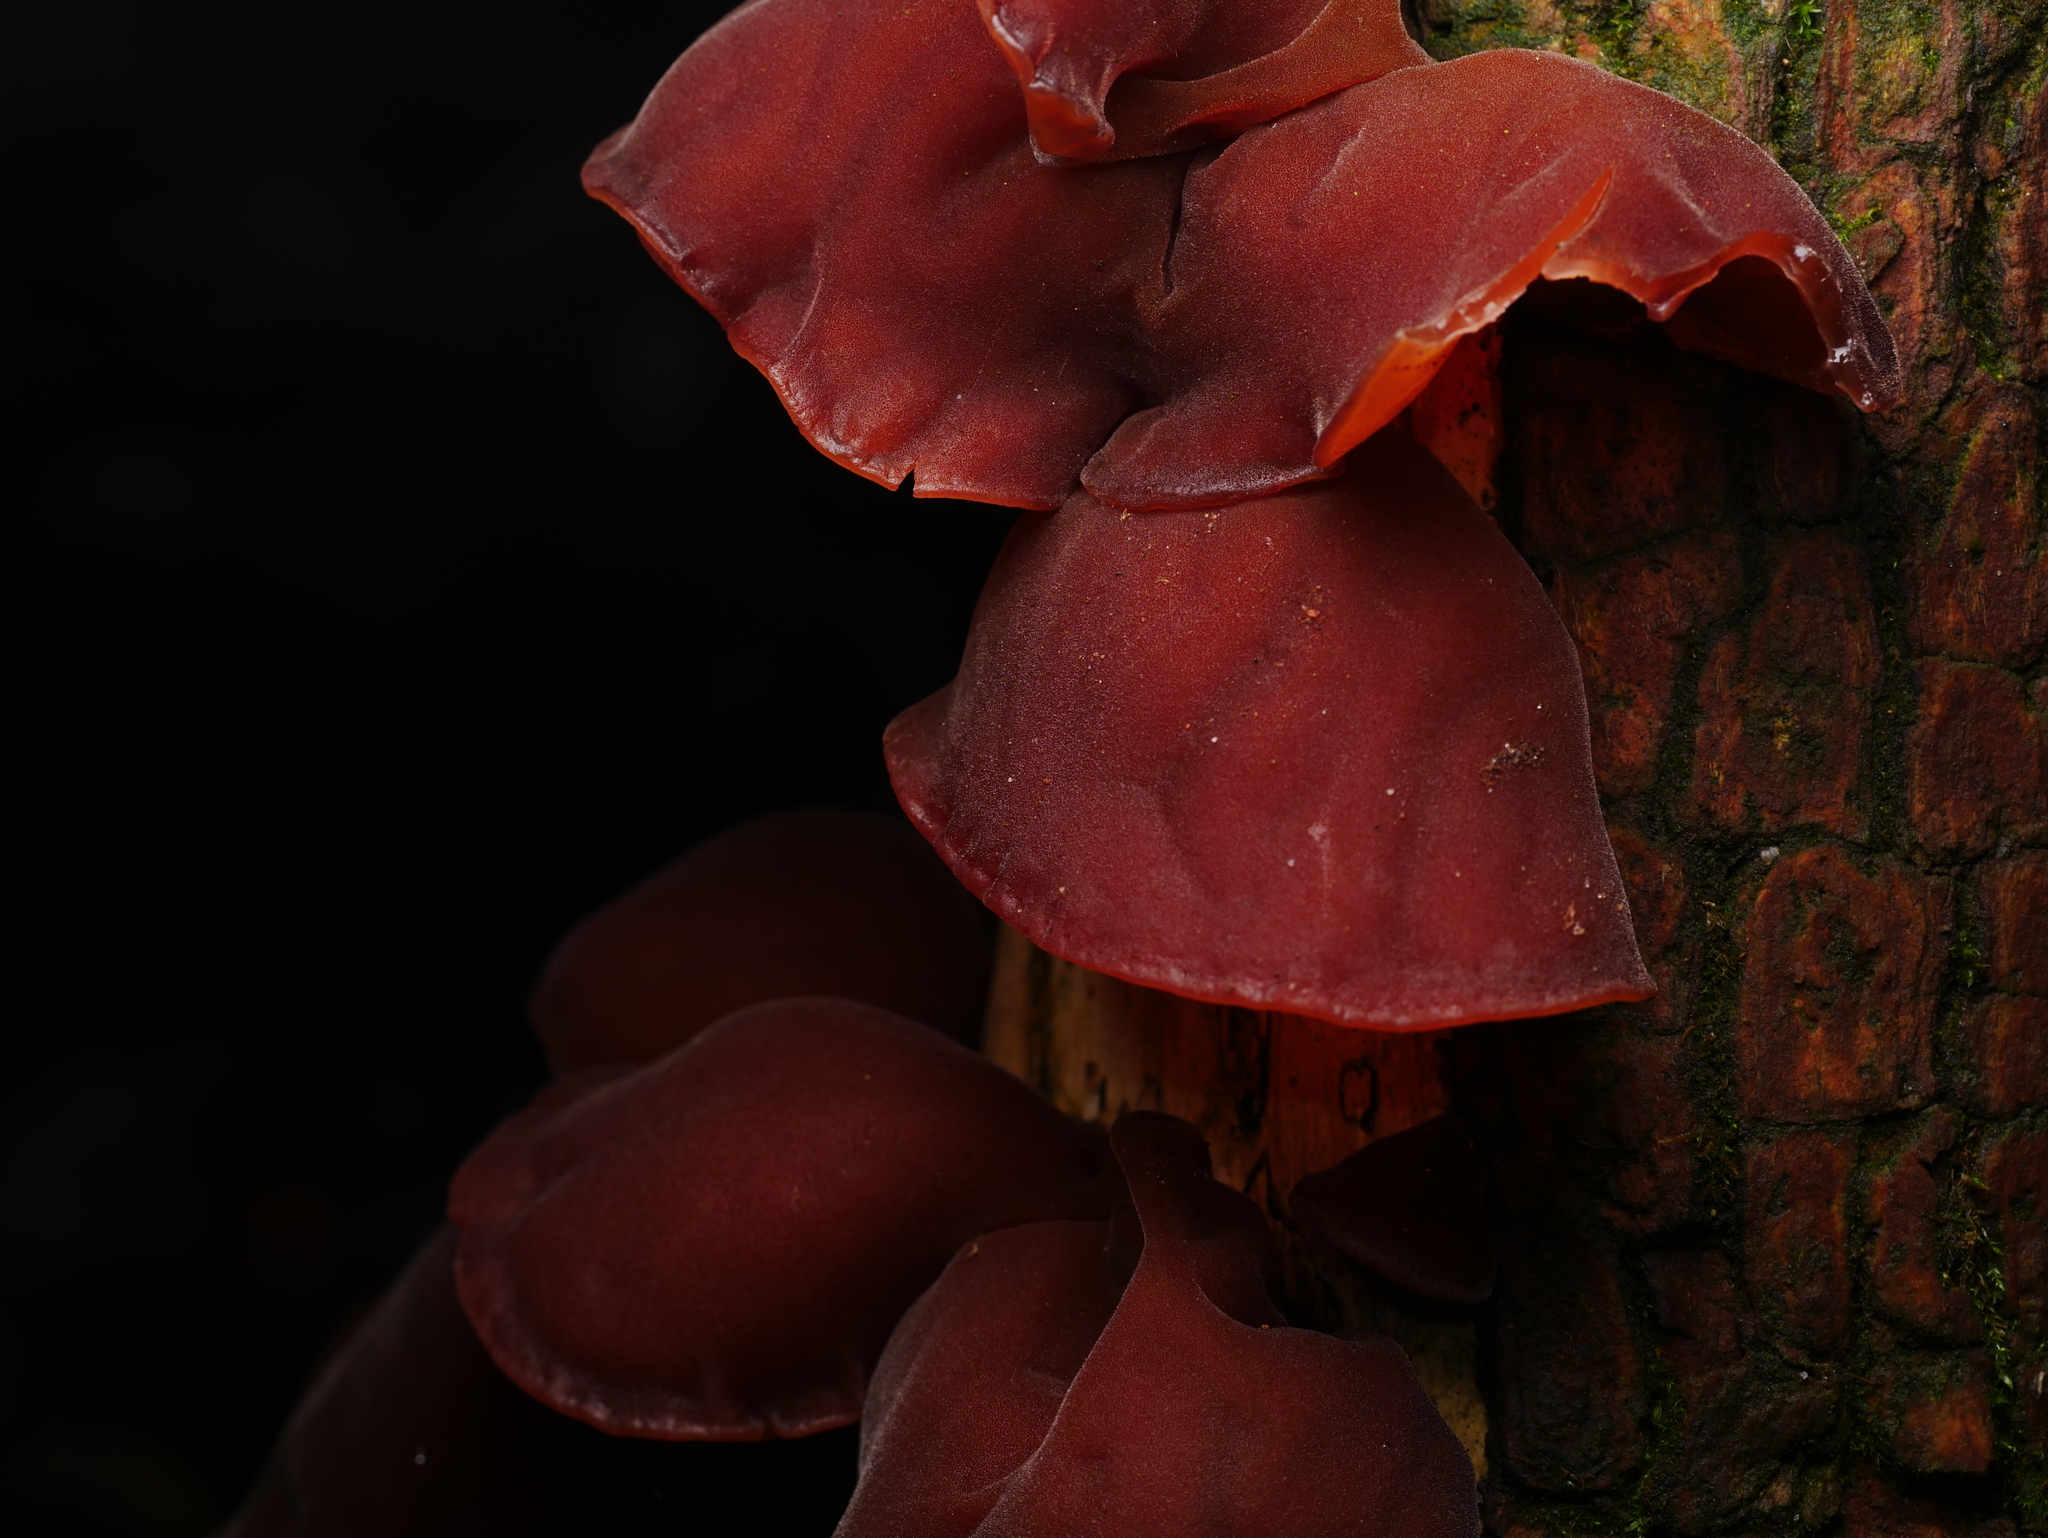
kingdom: Fungi
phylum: Basidiomycota
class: Agaricomycetes
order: Auriculariales
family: Auriculariaceae
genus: Auricularia
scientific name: Auricularia auricula-judae
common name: Jelly ear
